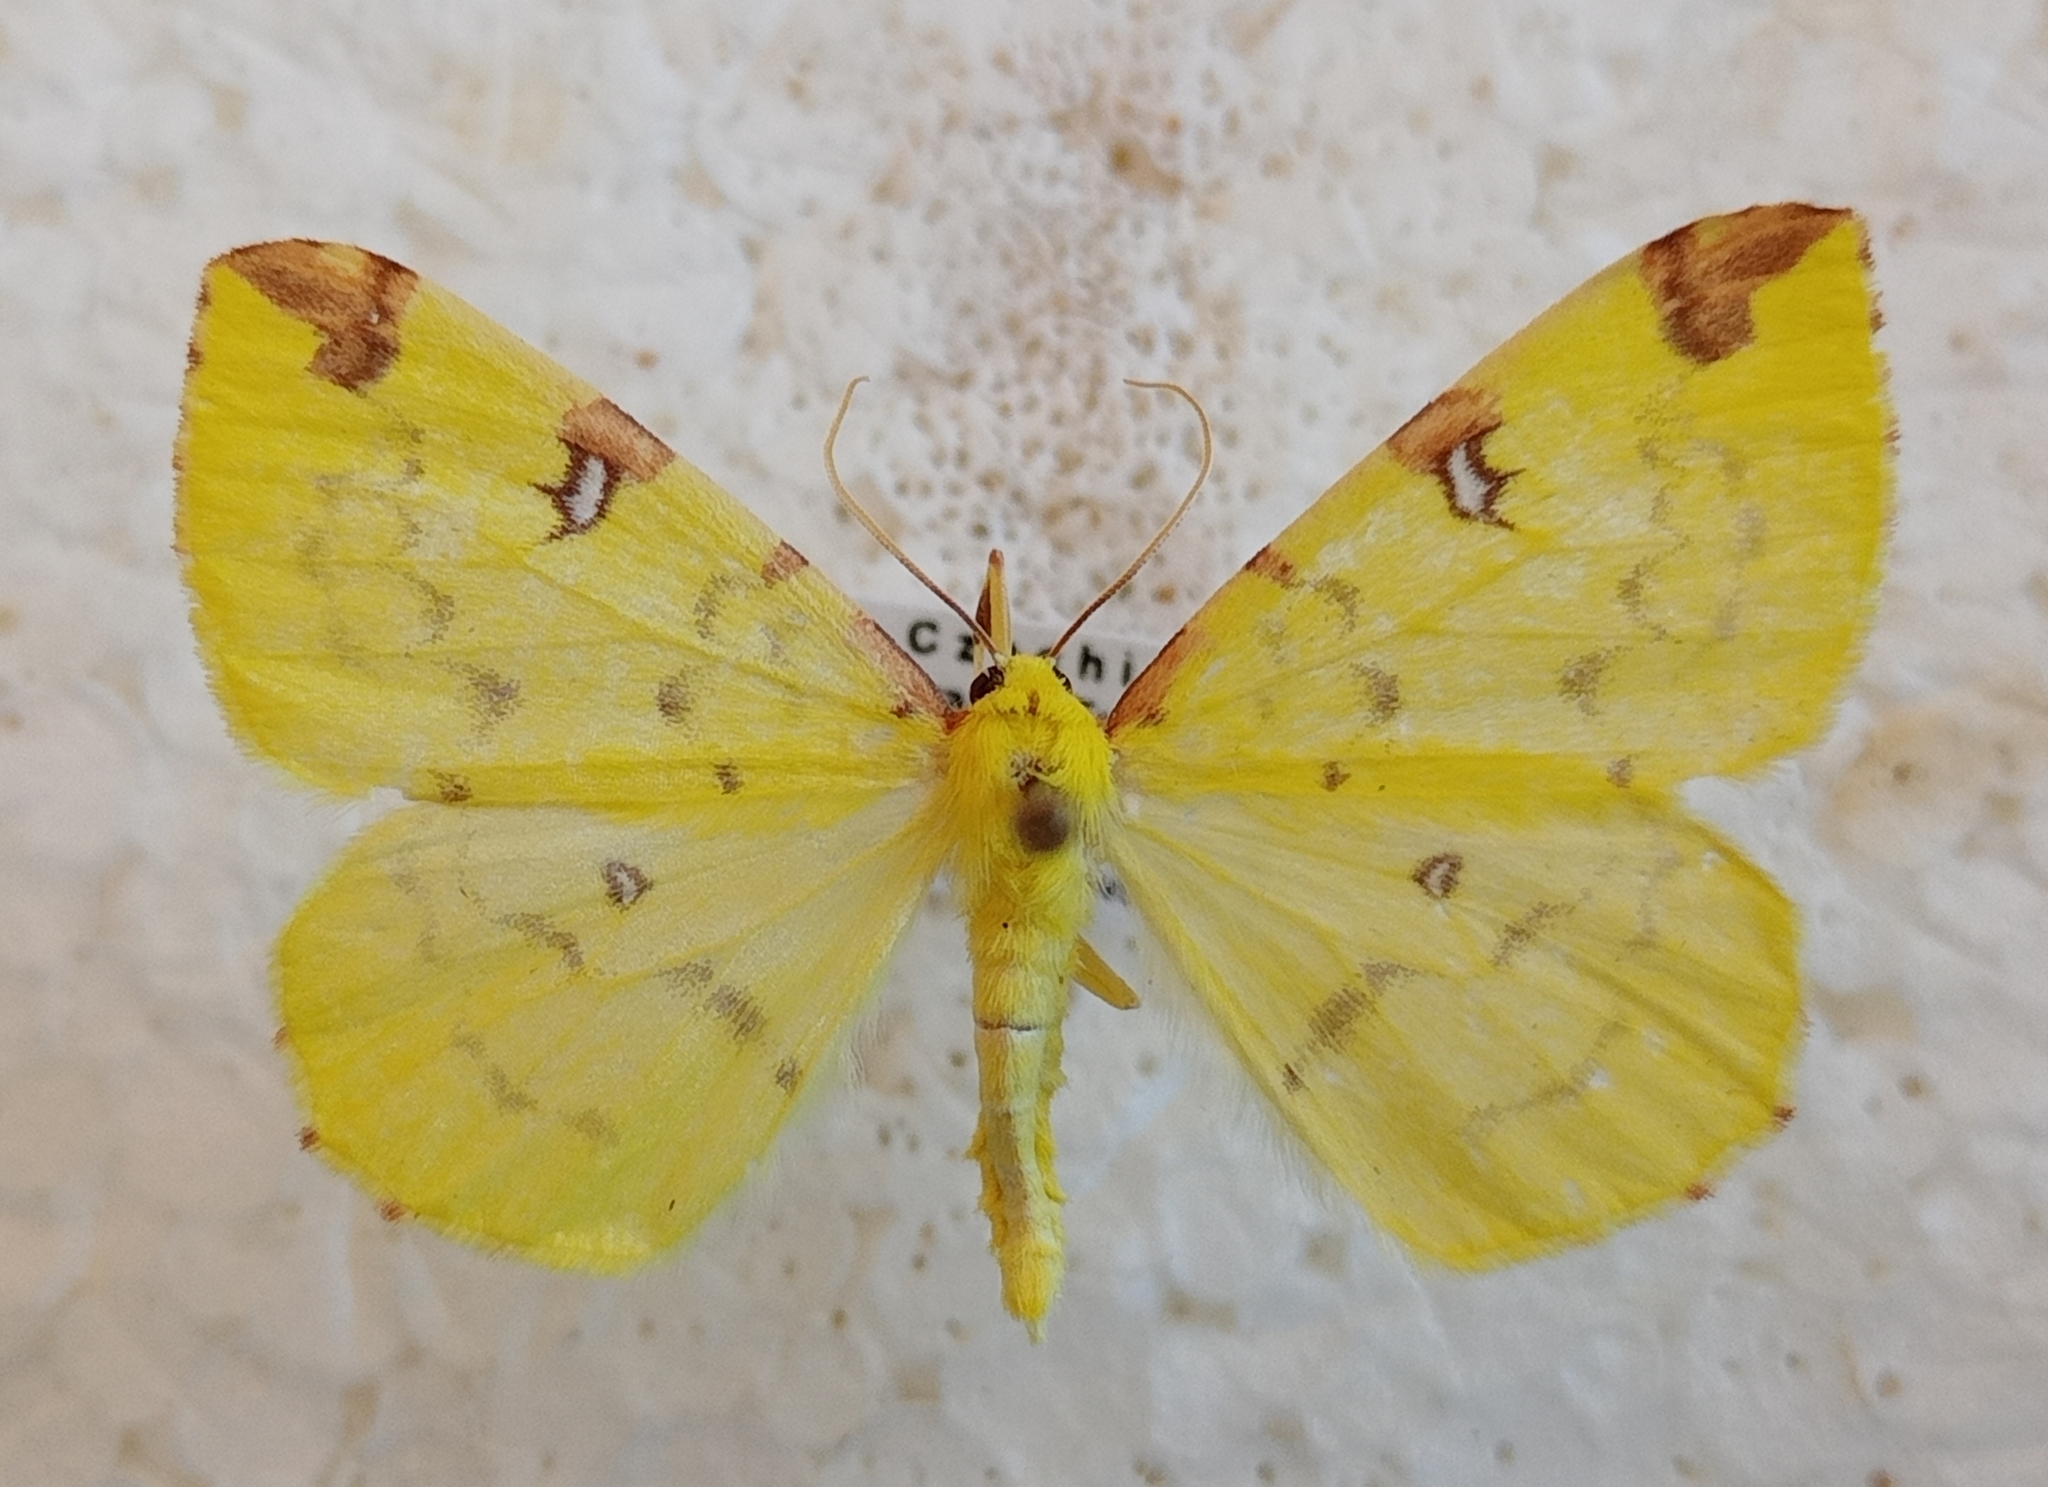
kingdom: Animalia
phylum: Arthropoda
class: Insecta
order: Lepidoptera
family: Geometridae
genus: Opisthograptis
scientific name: Opisthograptis luteolata
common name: Brimstone moth
